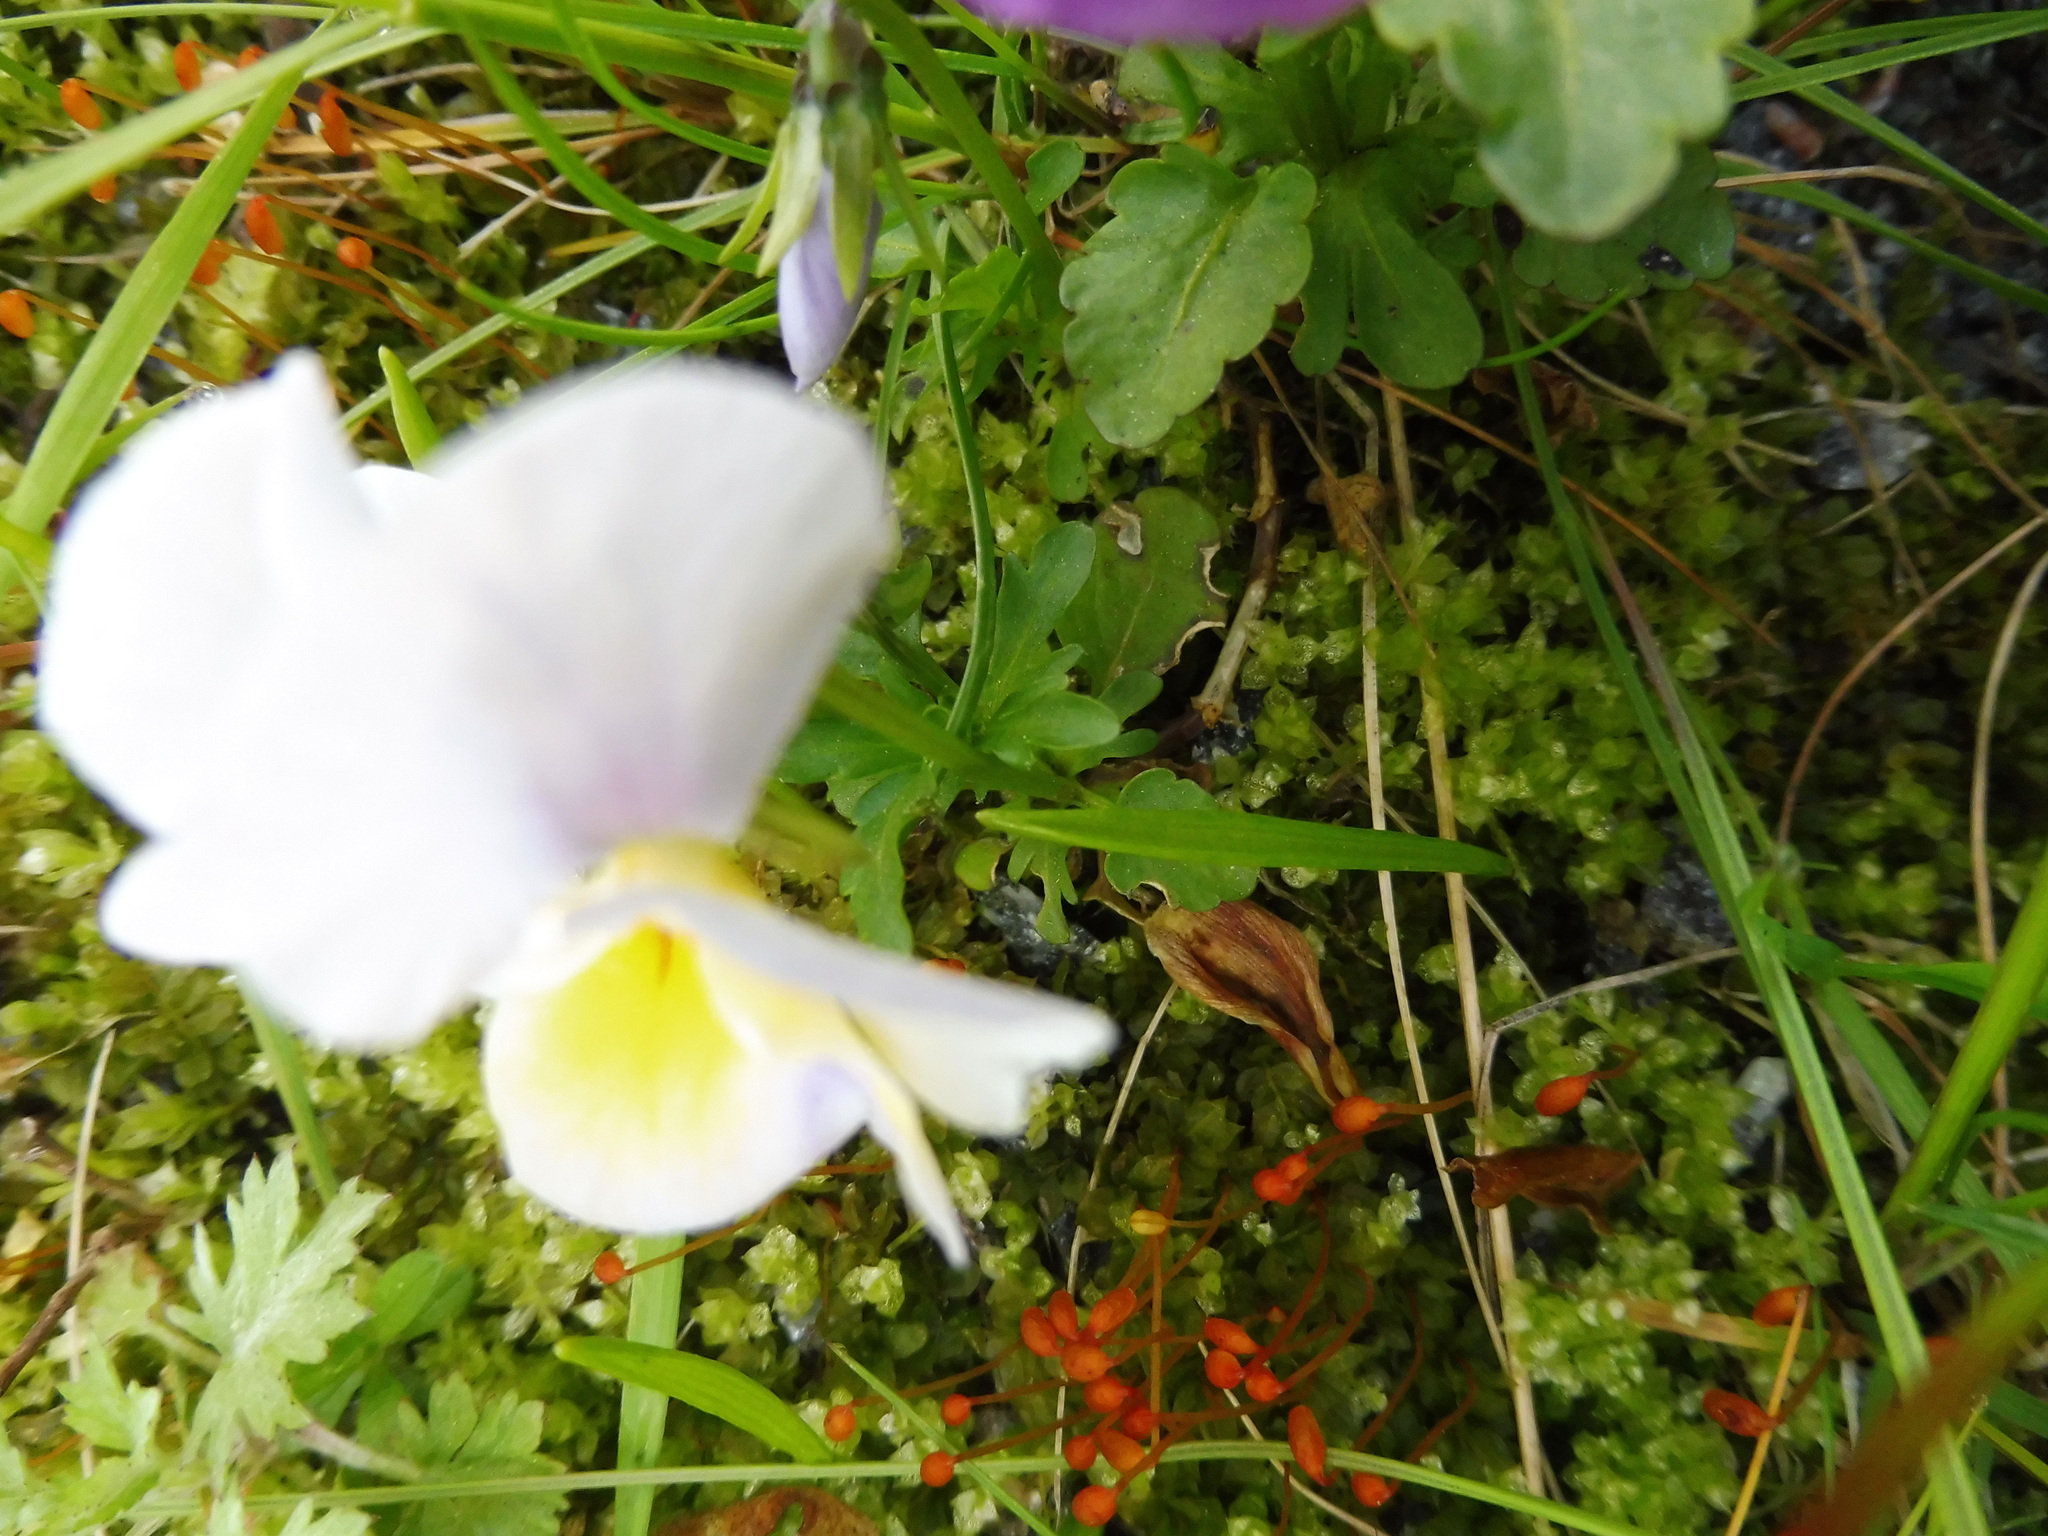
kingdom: Plantae
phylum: Tracheophyta
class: Magnoliopsida
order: Malpighiales
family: Violaceae
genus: Viola
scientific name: Viola wittrockiana
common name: Garden pansy
